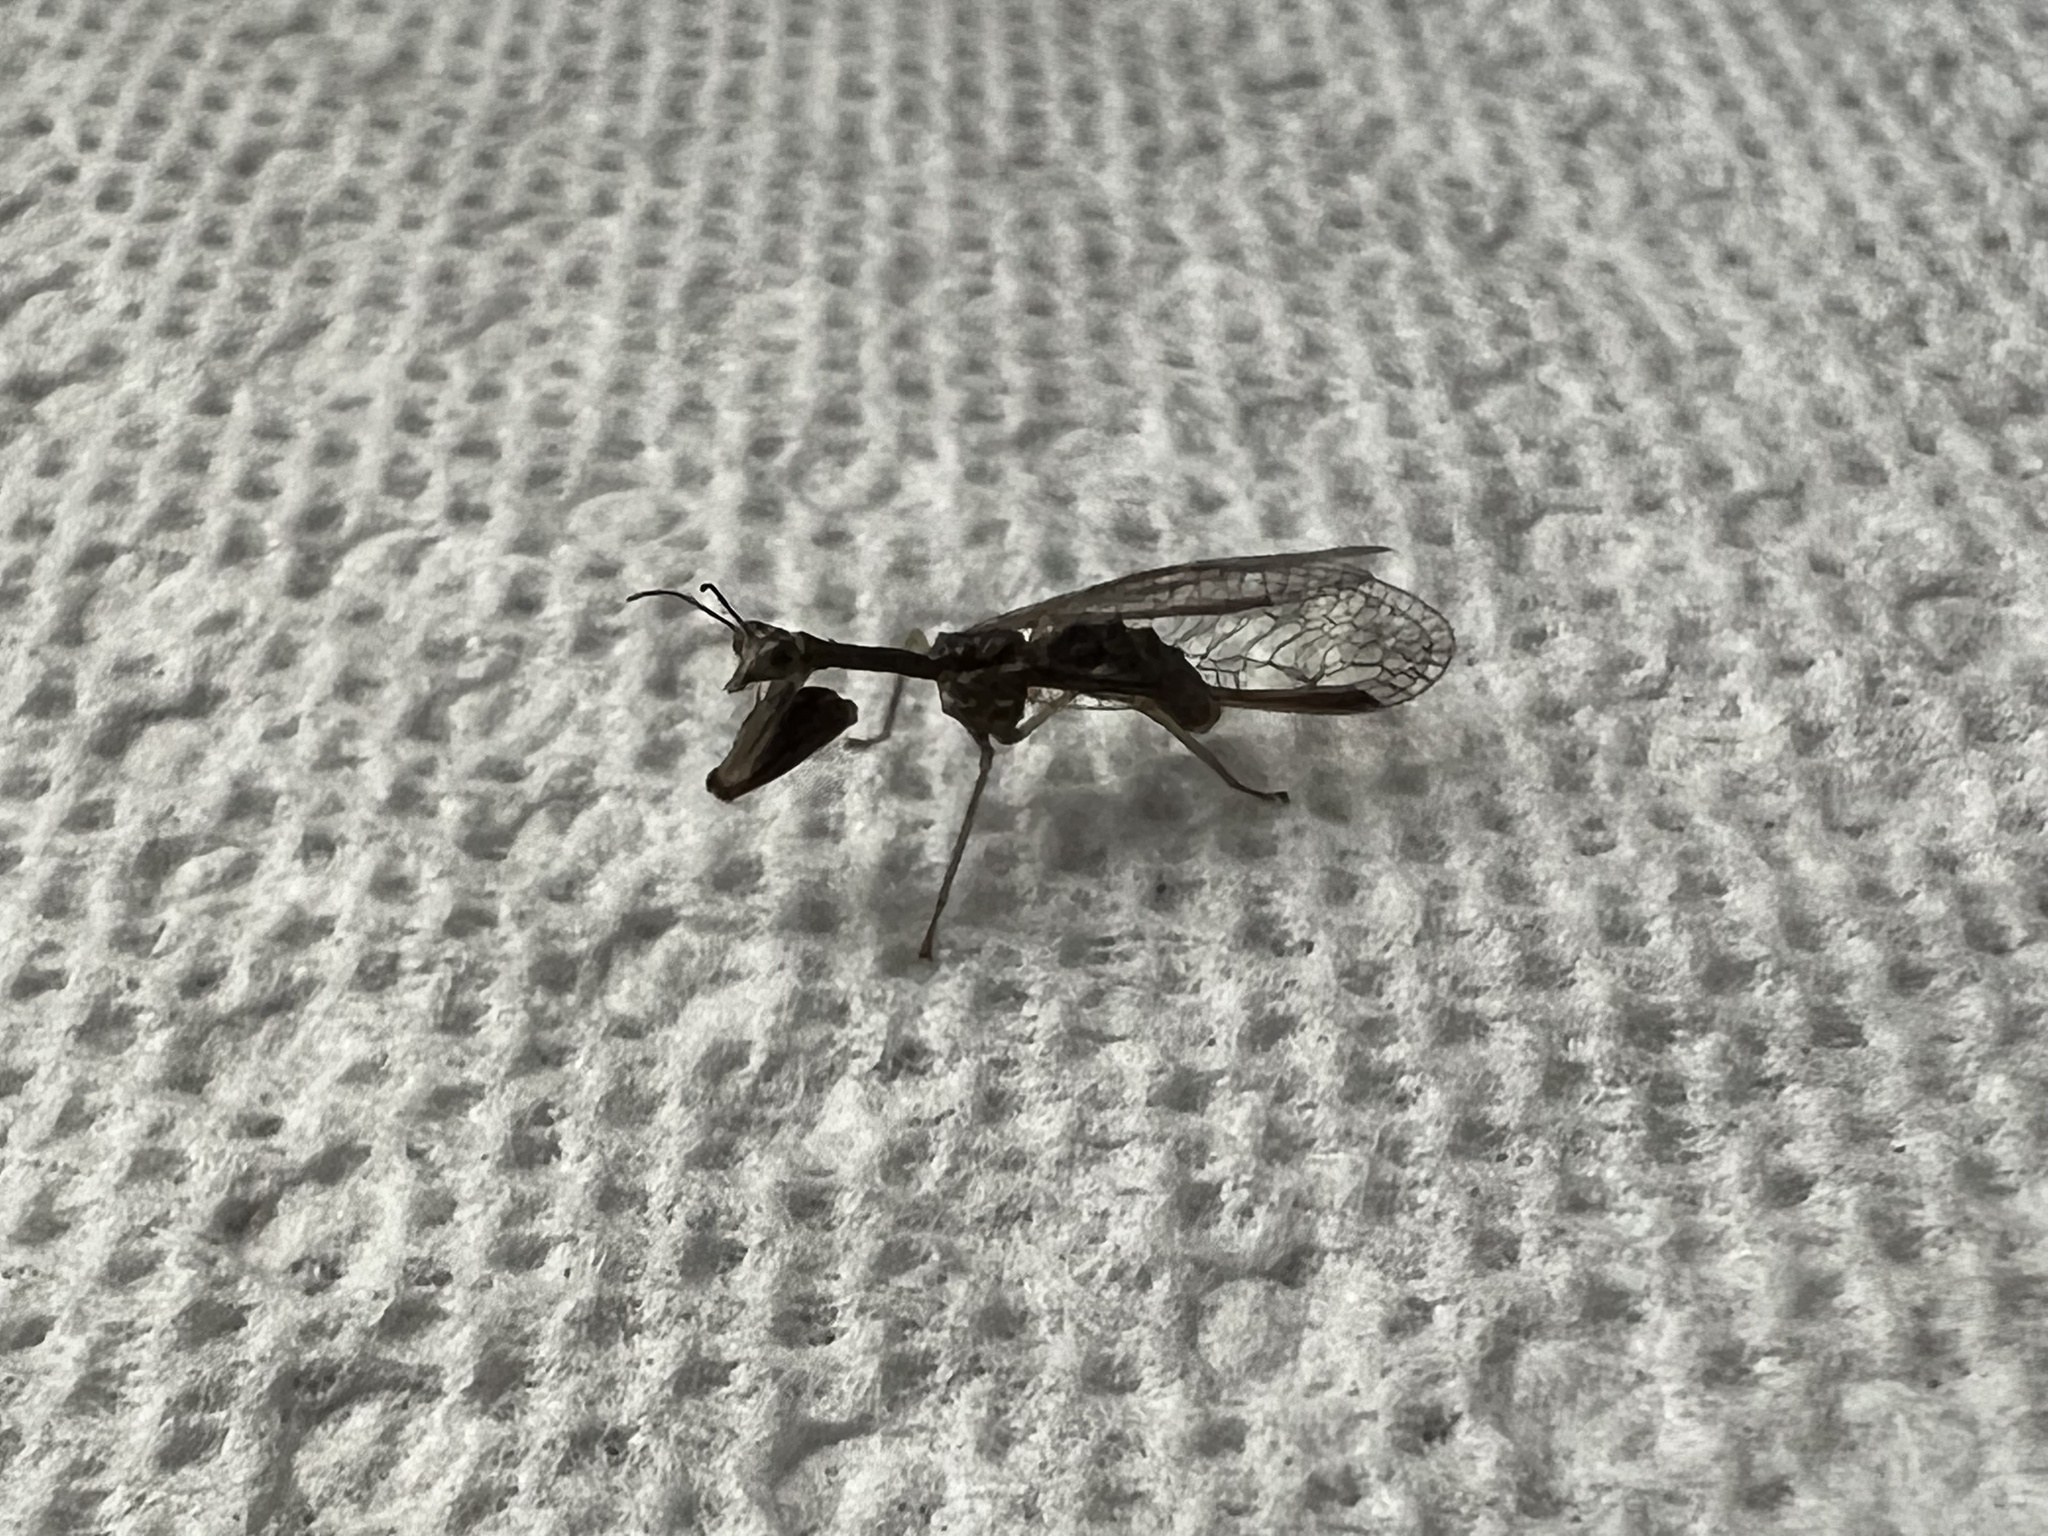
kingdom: Animalia
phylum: Arthropoda
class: Insecta
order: Neuroptera
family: Mantispidae
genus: Dicromantispa
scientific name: Dicromantispa sayi
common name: Say's mantidfly
